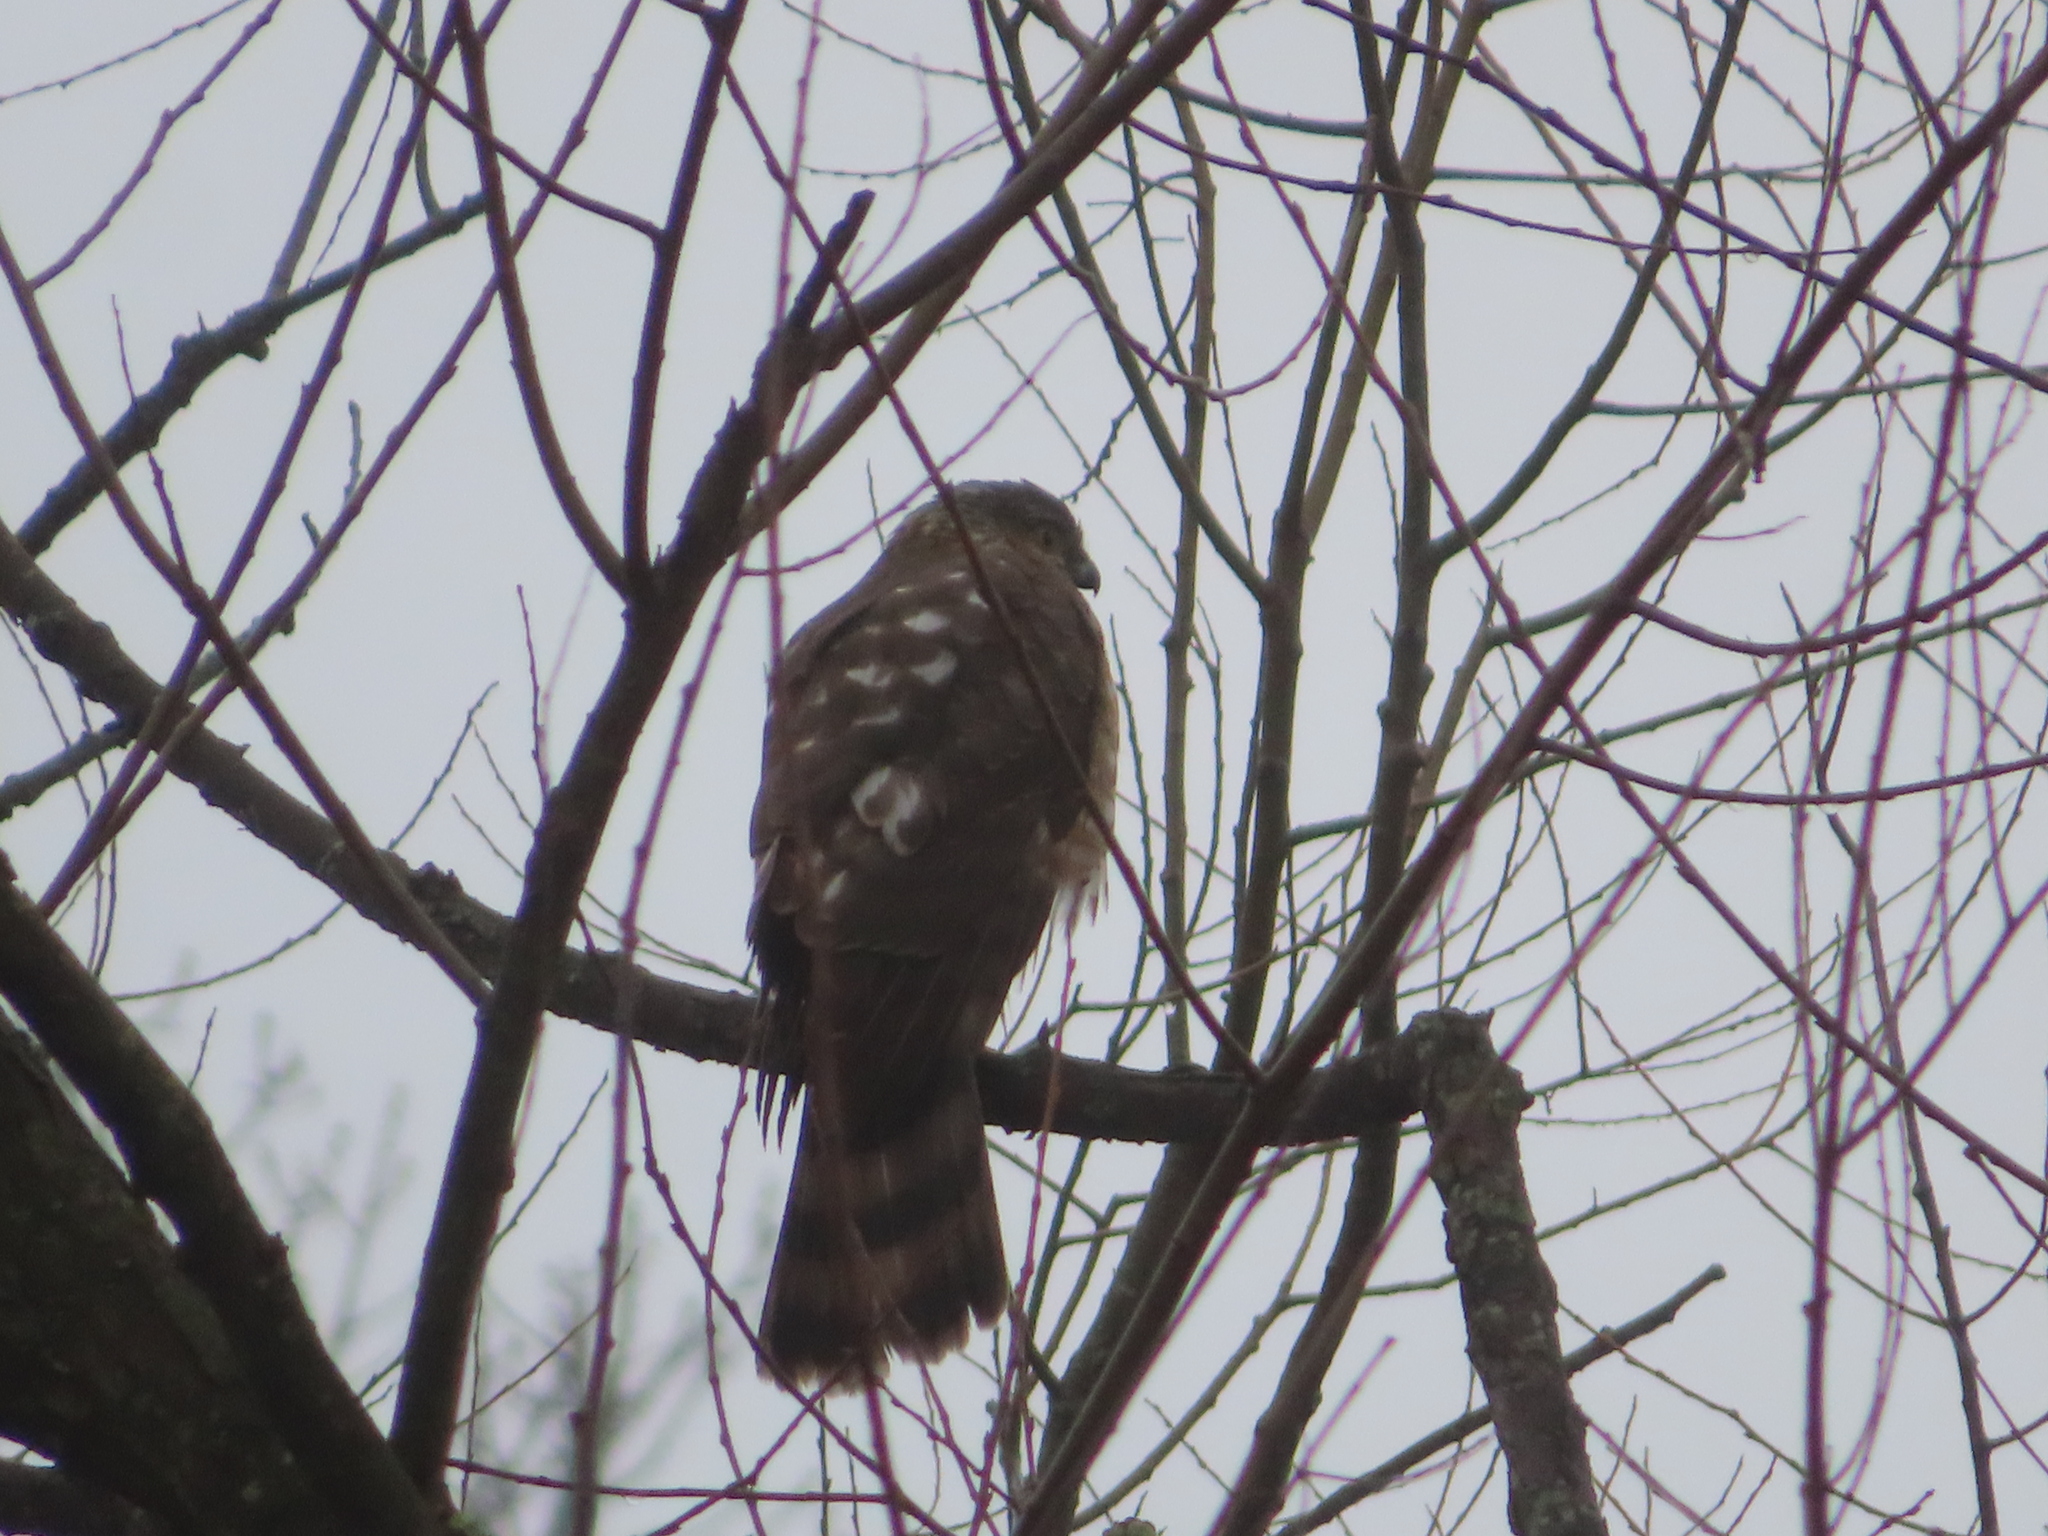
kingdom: Animalia
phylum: Chordata
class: Aves
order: Accipitriformes
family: Accipitridae
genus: Accipiter
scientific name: Accipiter striatus
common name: Sharp-shinned hawk
